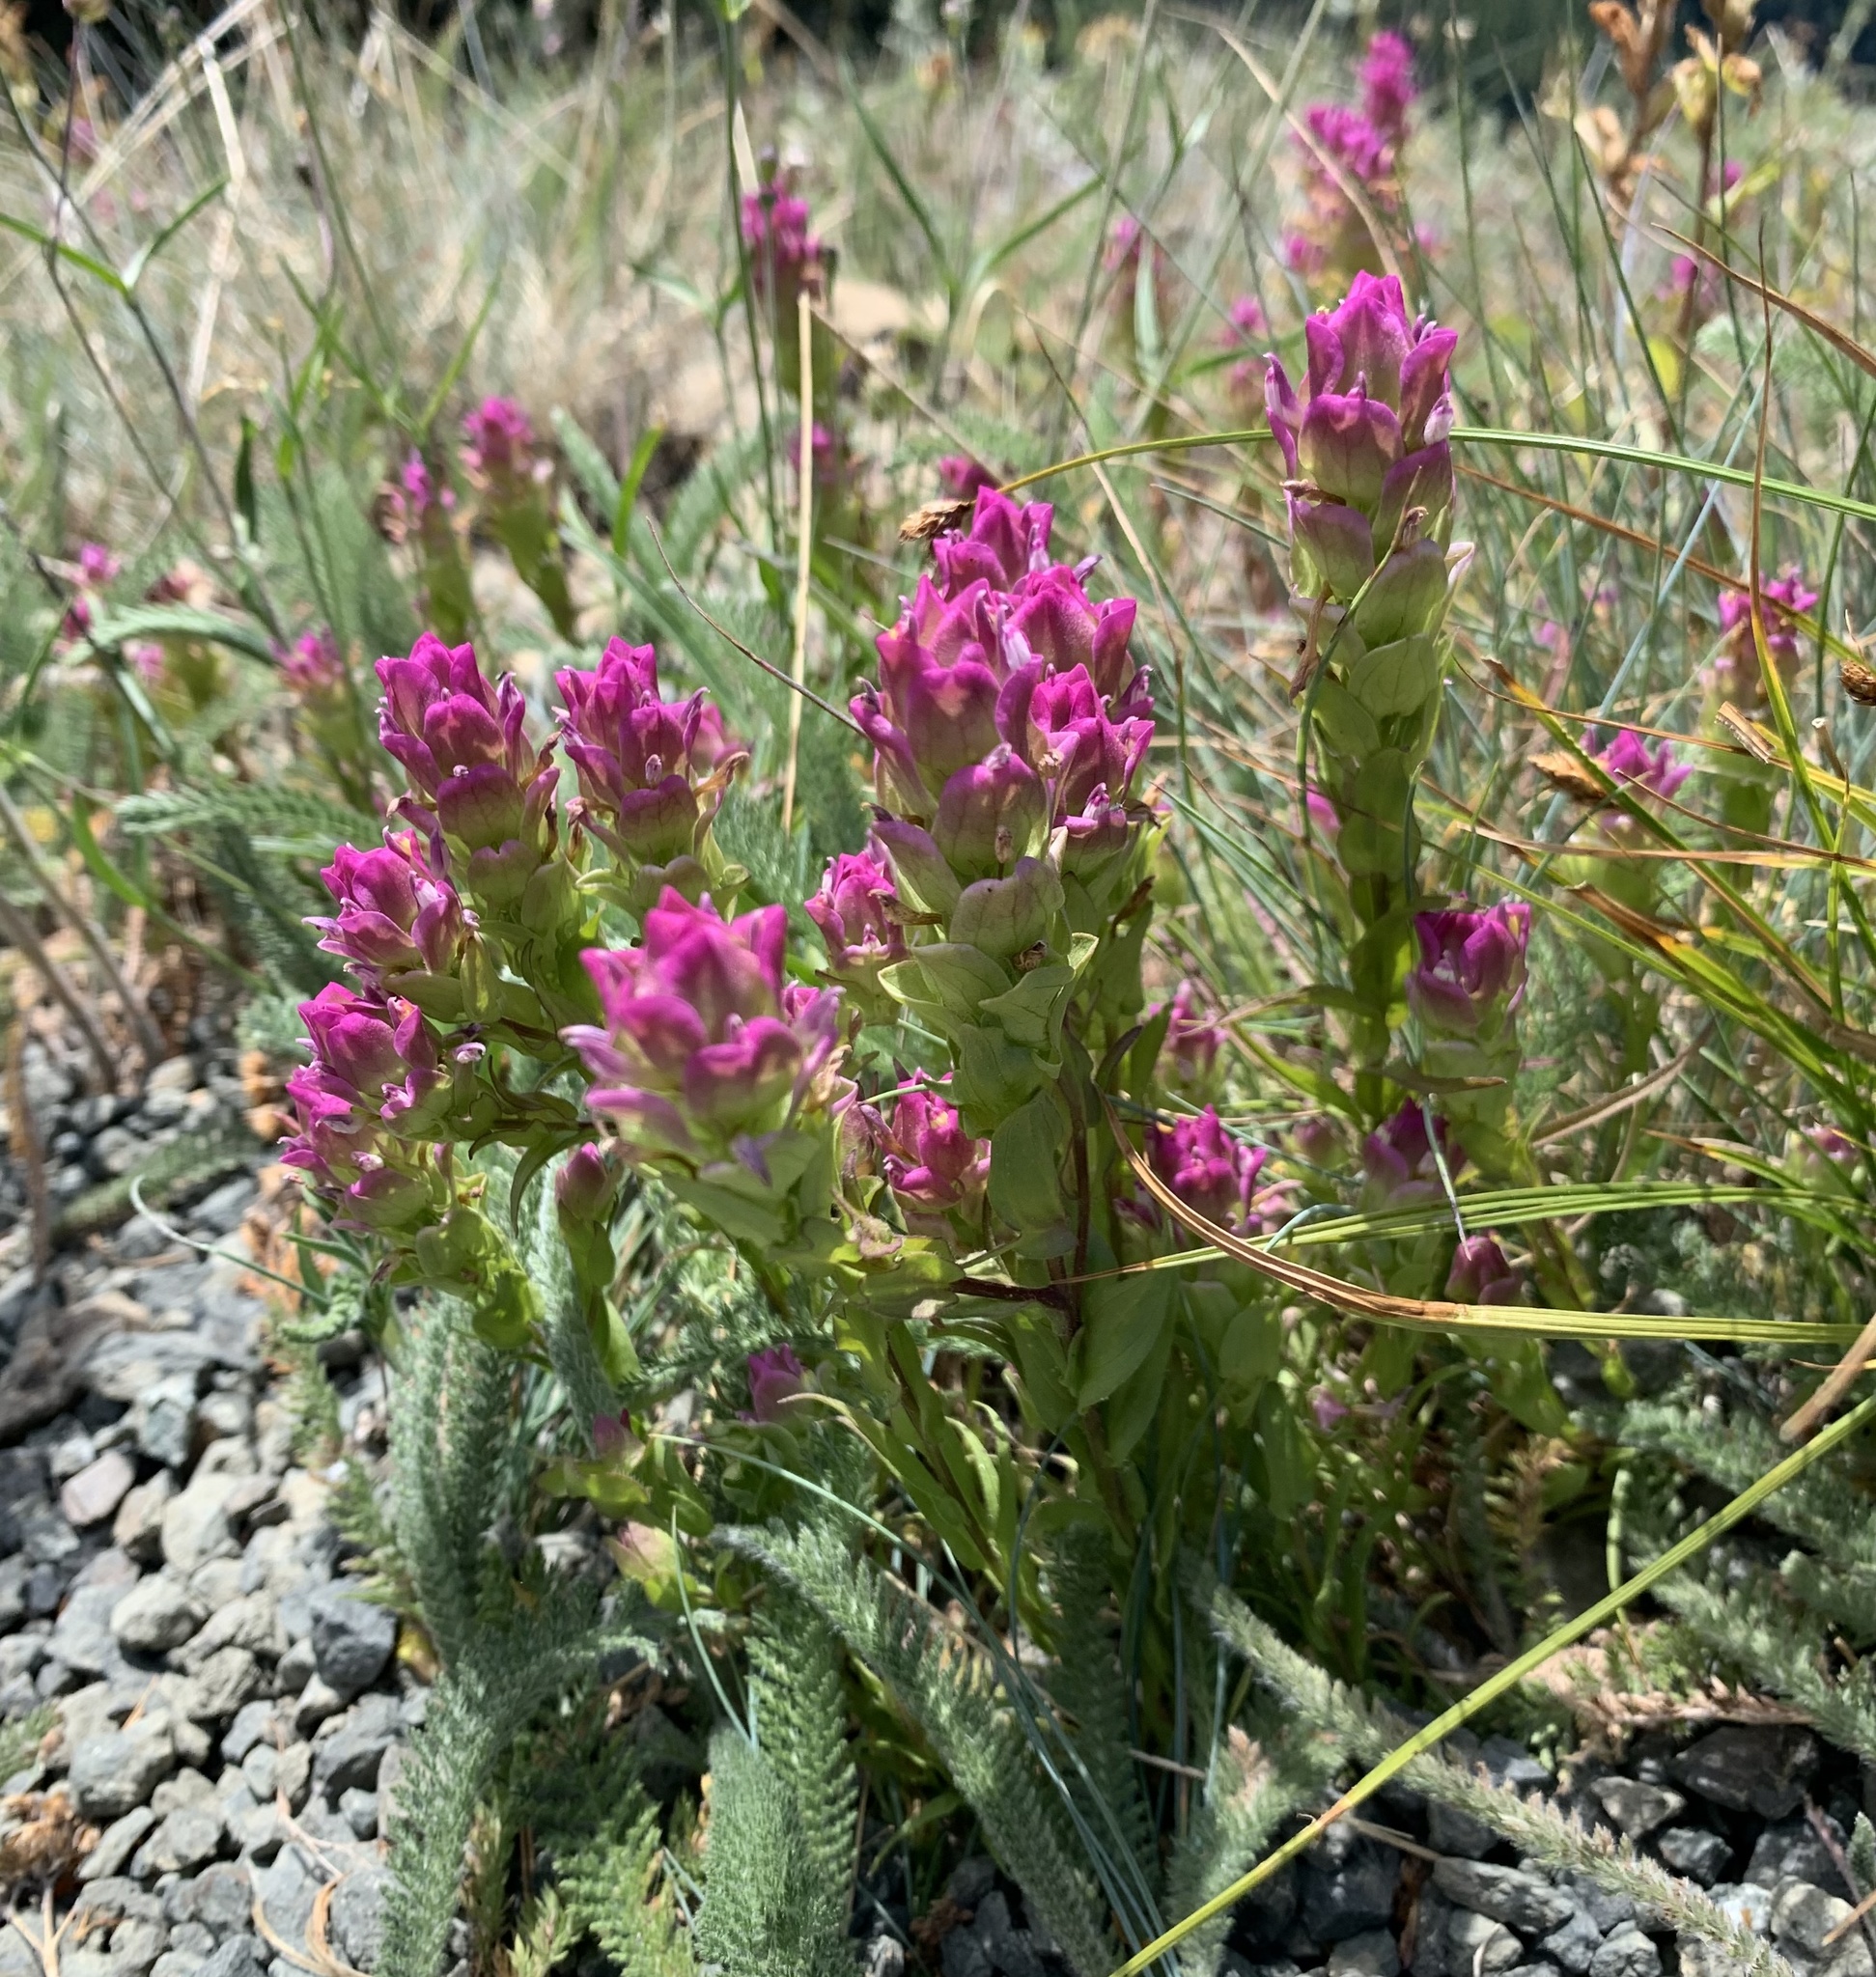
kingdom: Plantae
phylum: Tracheophyta
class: Magnoliopsida
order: Lamiales
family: Orobanchaceae
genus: Orthocarpus
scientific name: Orthocarpus imbricatus
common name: Mountain owl's-clover
